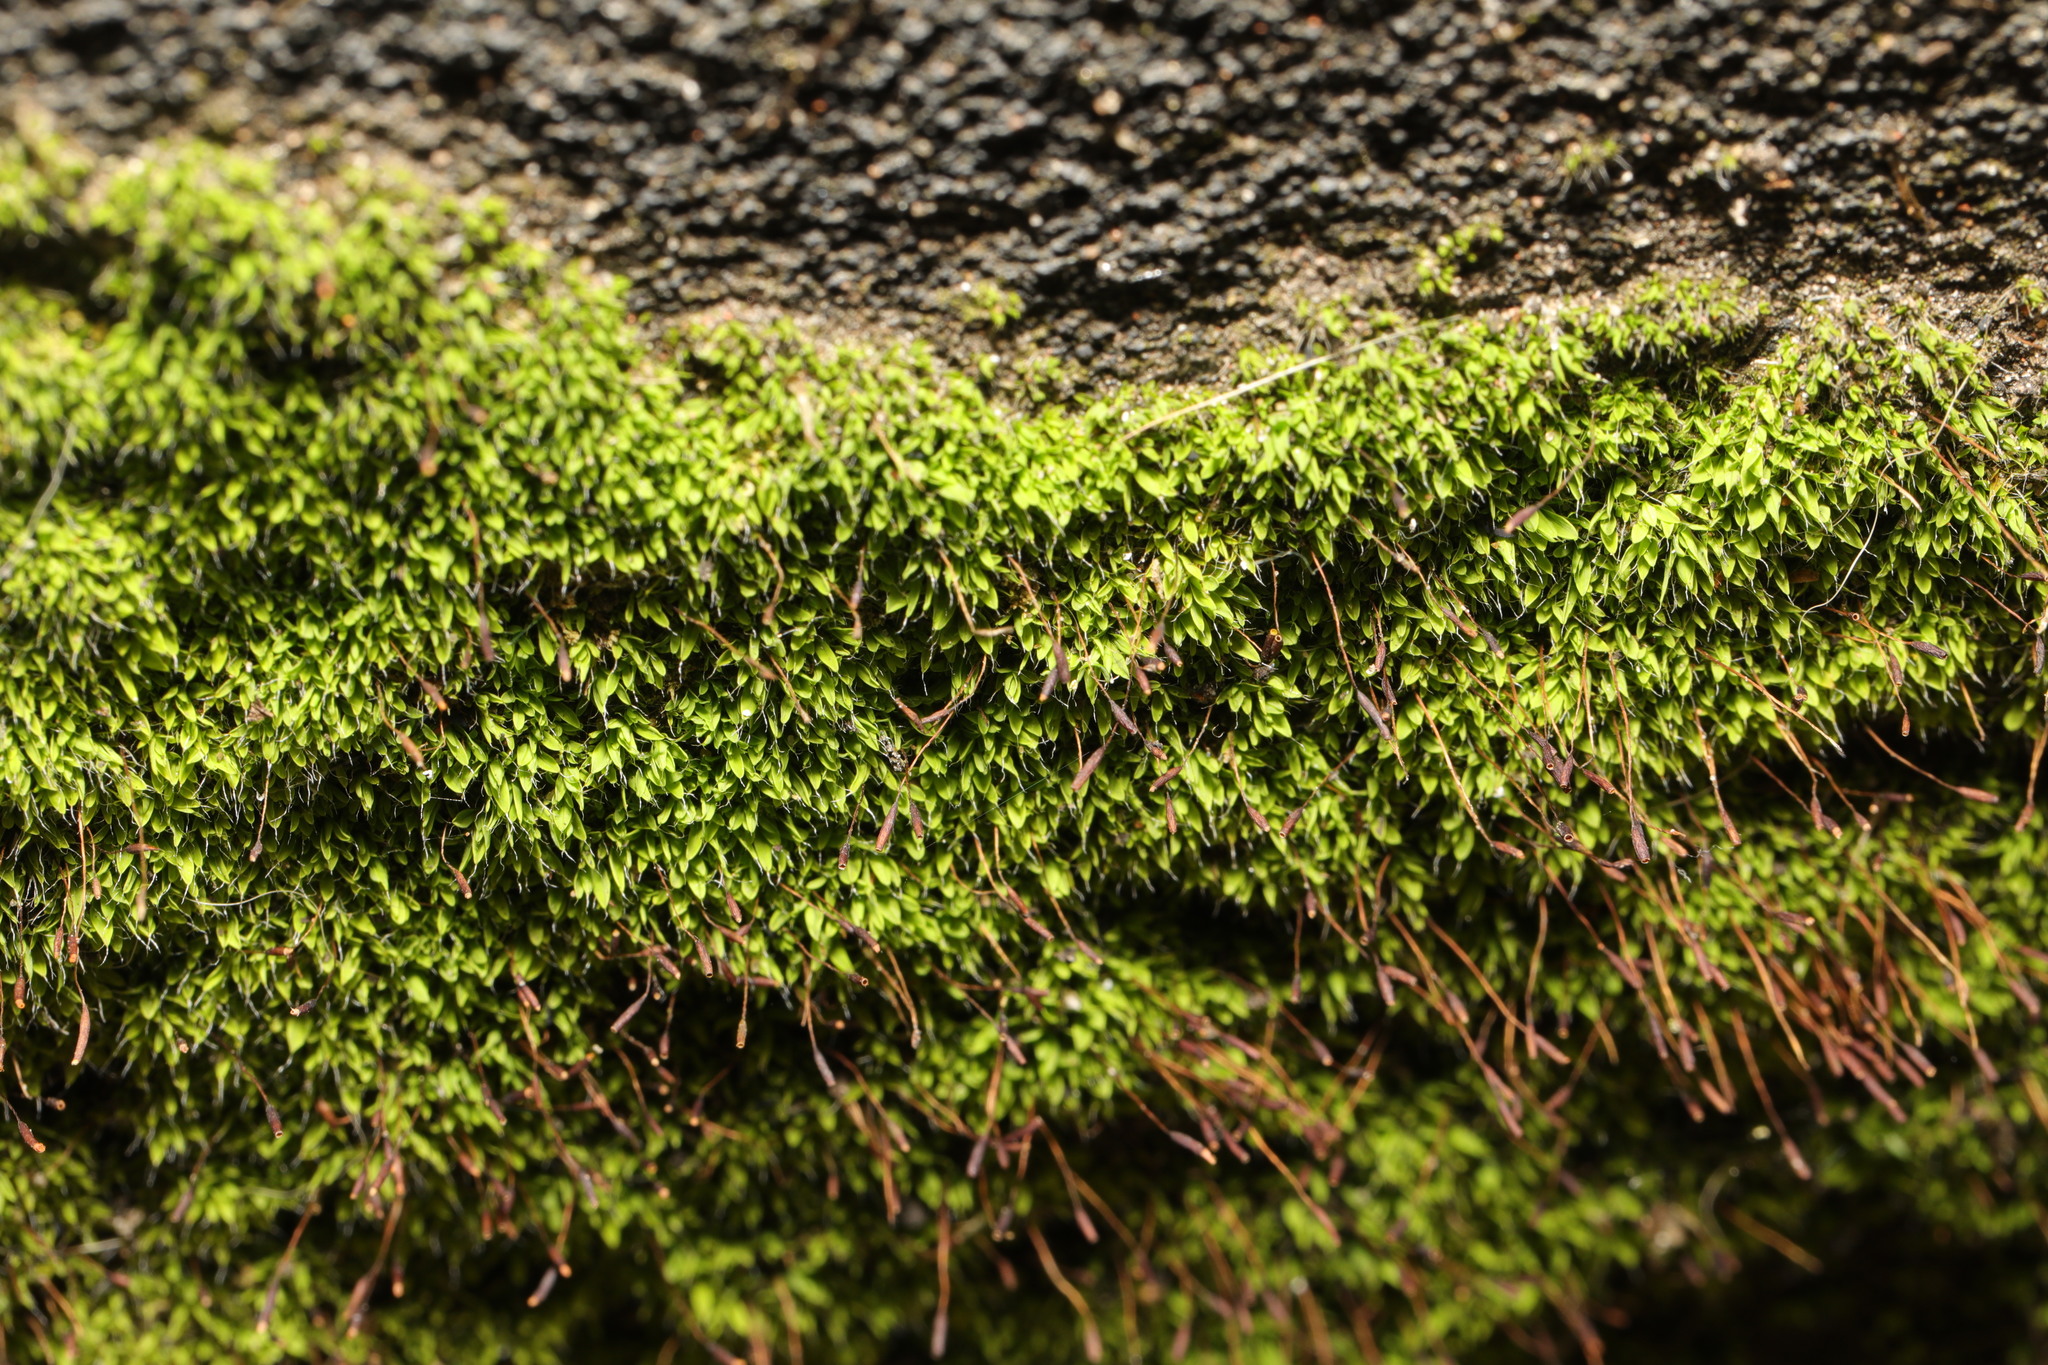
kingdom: Plantae
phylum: Bryophyta
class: Bryopsida
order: Pottiales
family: Pottiaceae
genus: Tortula
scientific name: Tortula muralis
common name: Wall screw-moss
